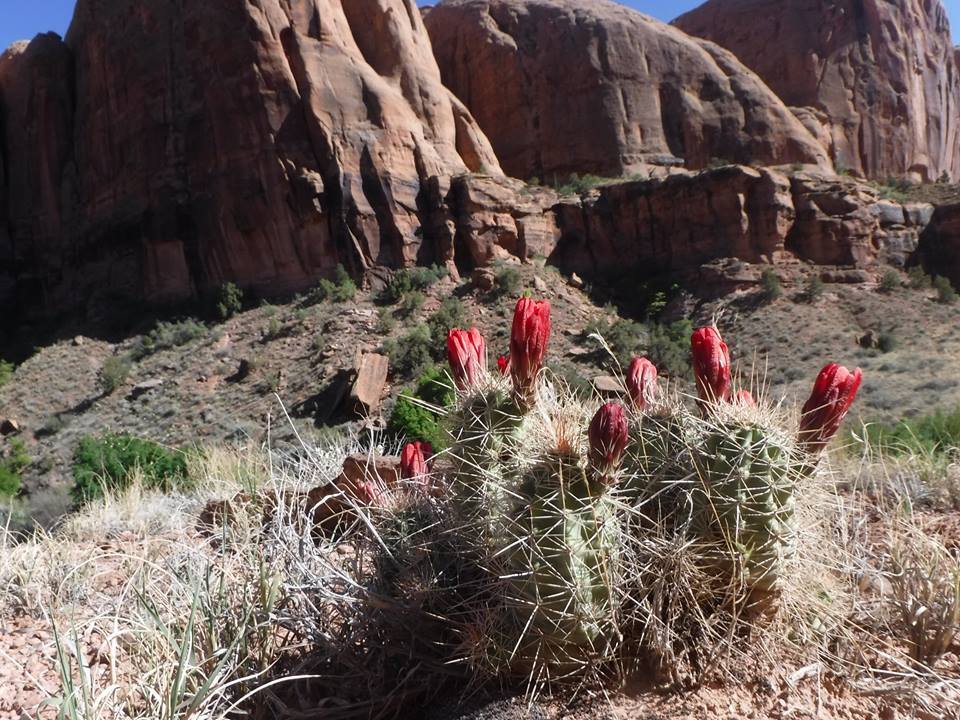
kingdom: Plantae
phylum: Tracheophyta
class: Magnoliopsida
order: Caryophyllales
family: Cactaceae
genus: Echinocereus
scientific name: Echinocereus triglochidiatus
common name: Claretcup hedgehog
